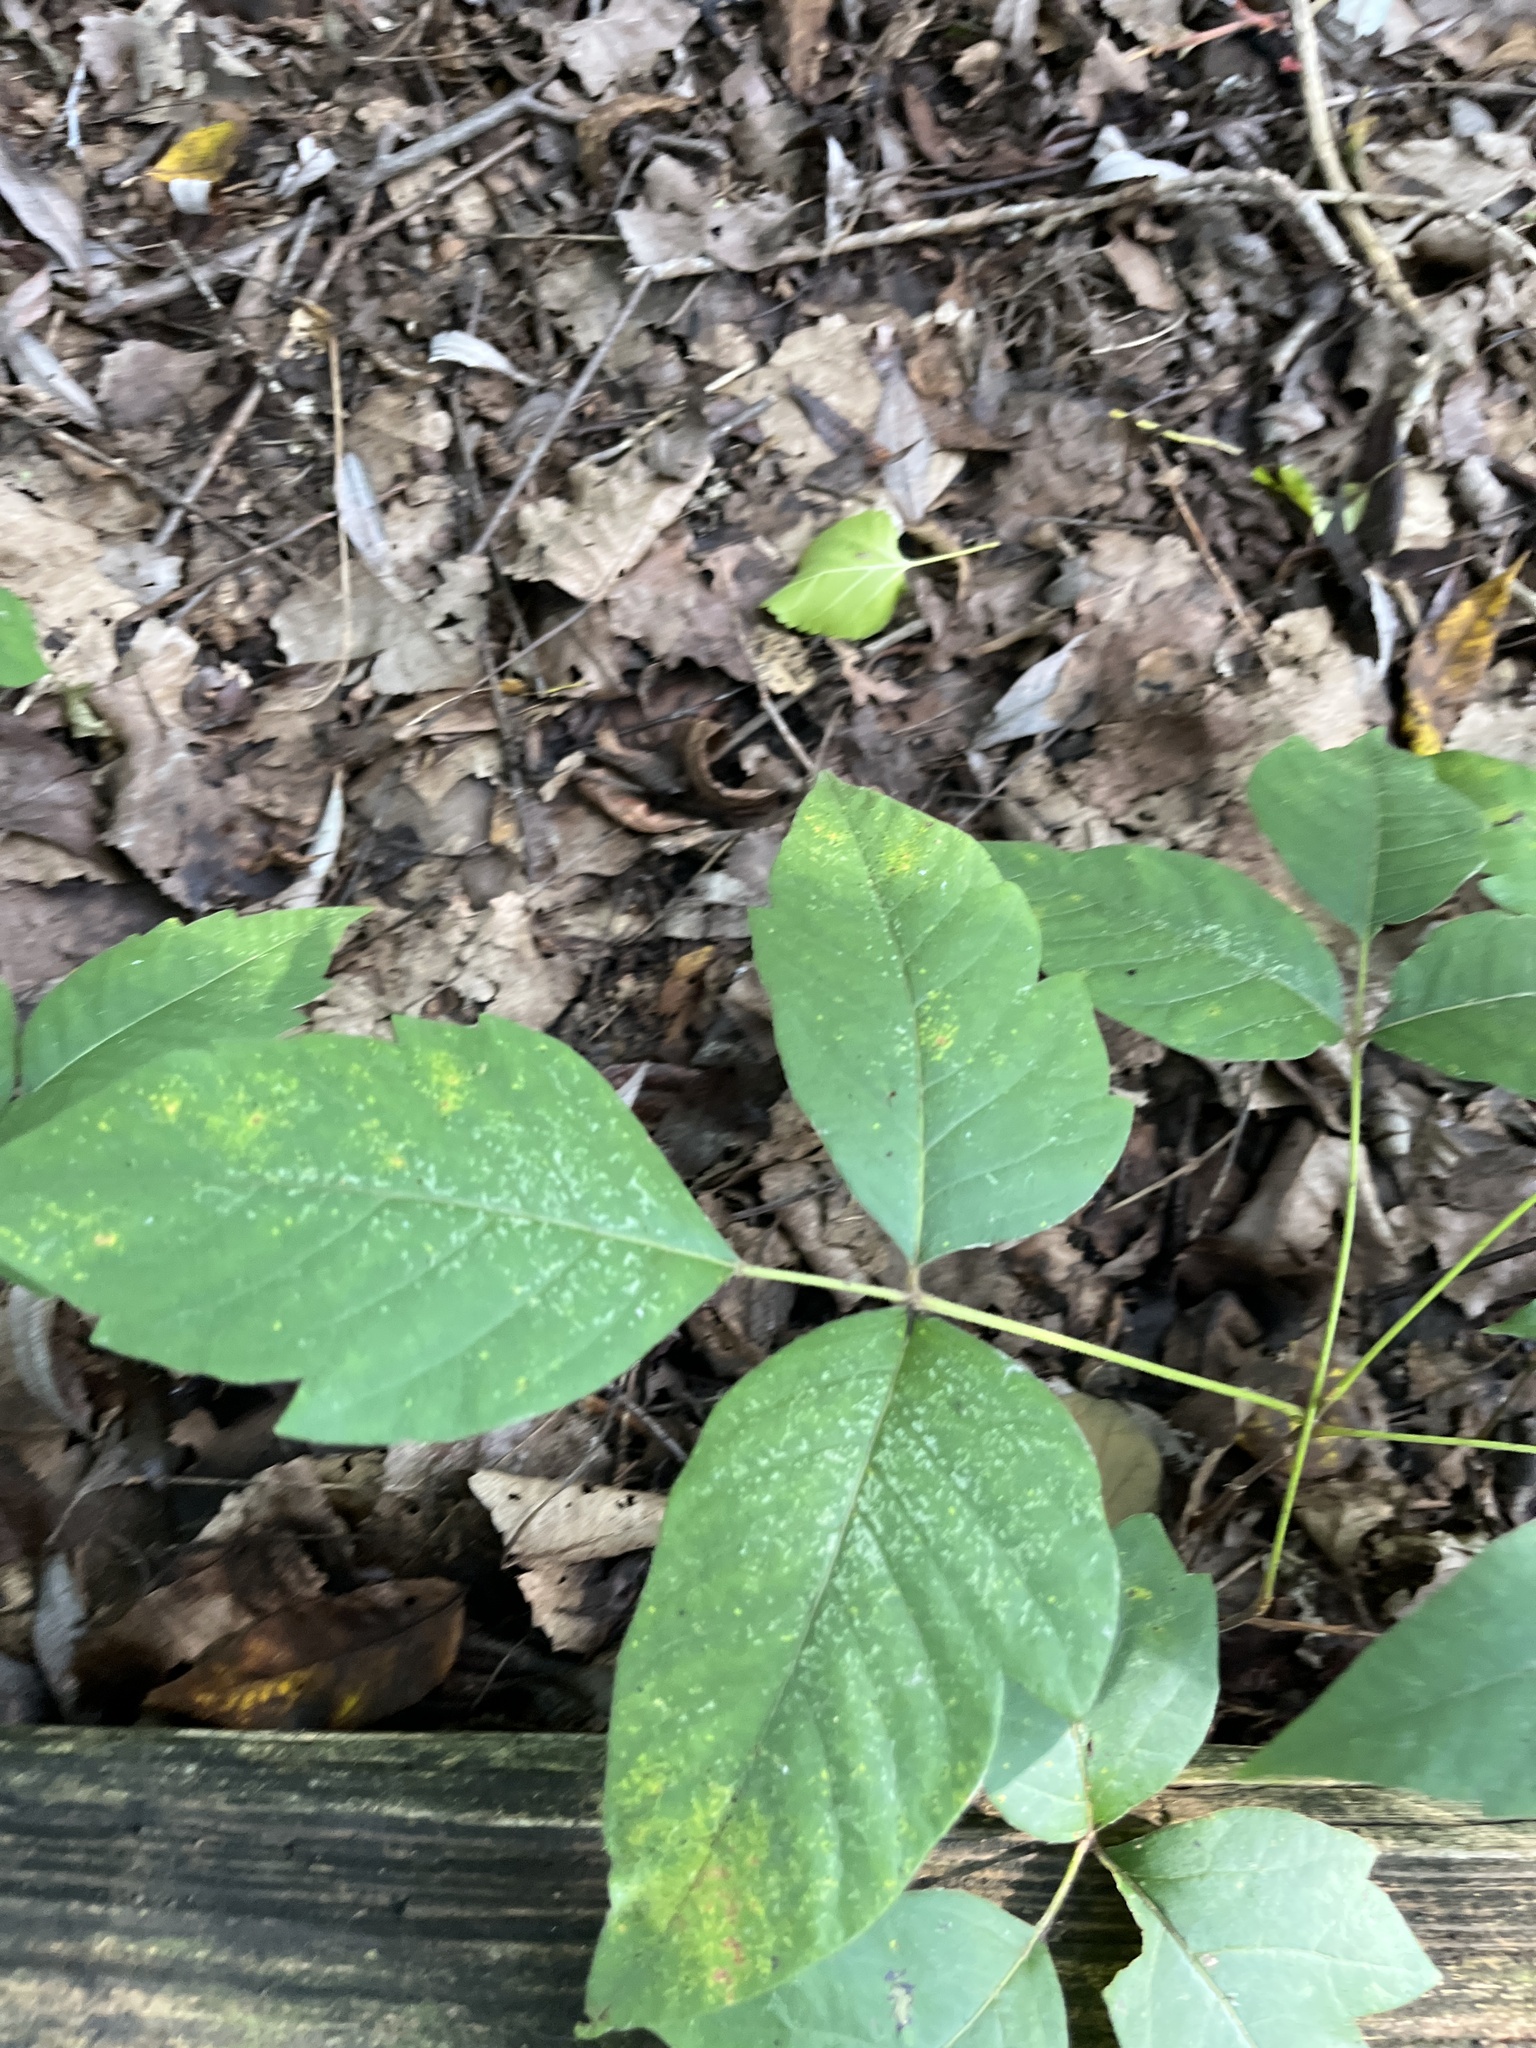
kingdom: Plantae
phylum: Tracheophyta
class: Magnoliopsida
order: Sapindales
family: Anacardiaceae
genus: Toxicodendron
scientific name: Toxicodendron radicans
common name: Poison ivy
